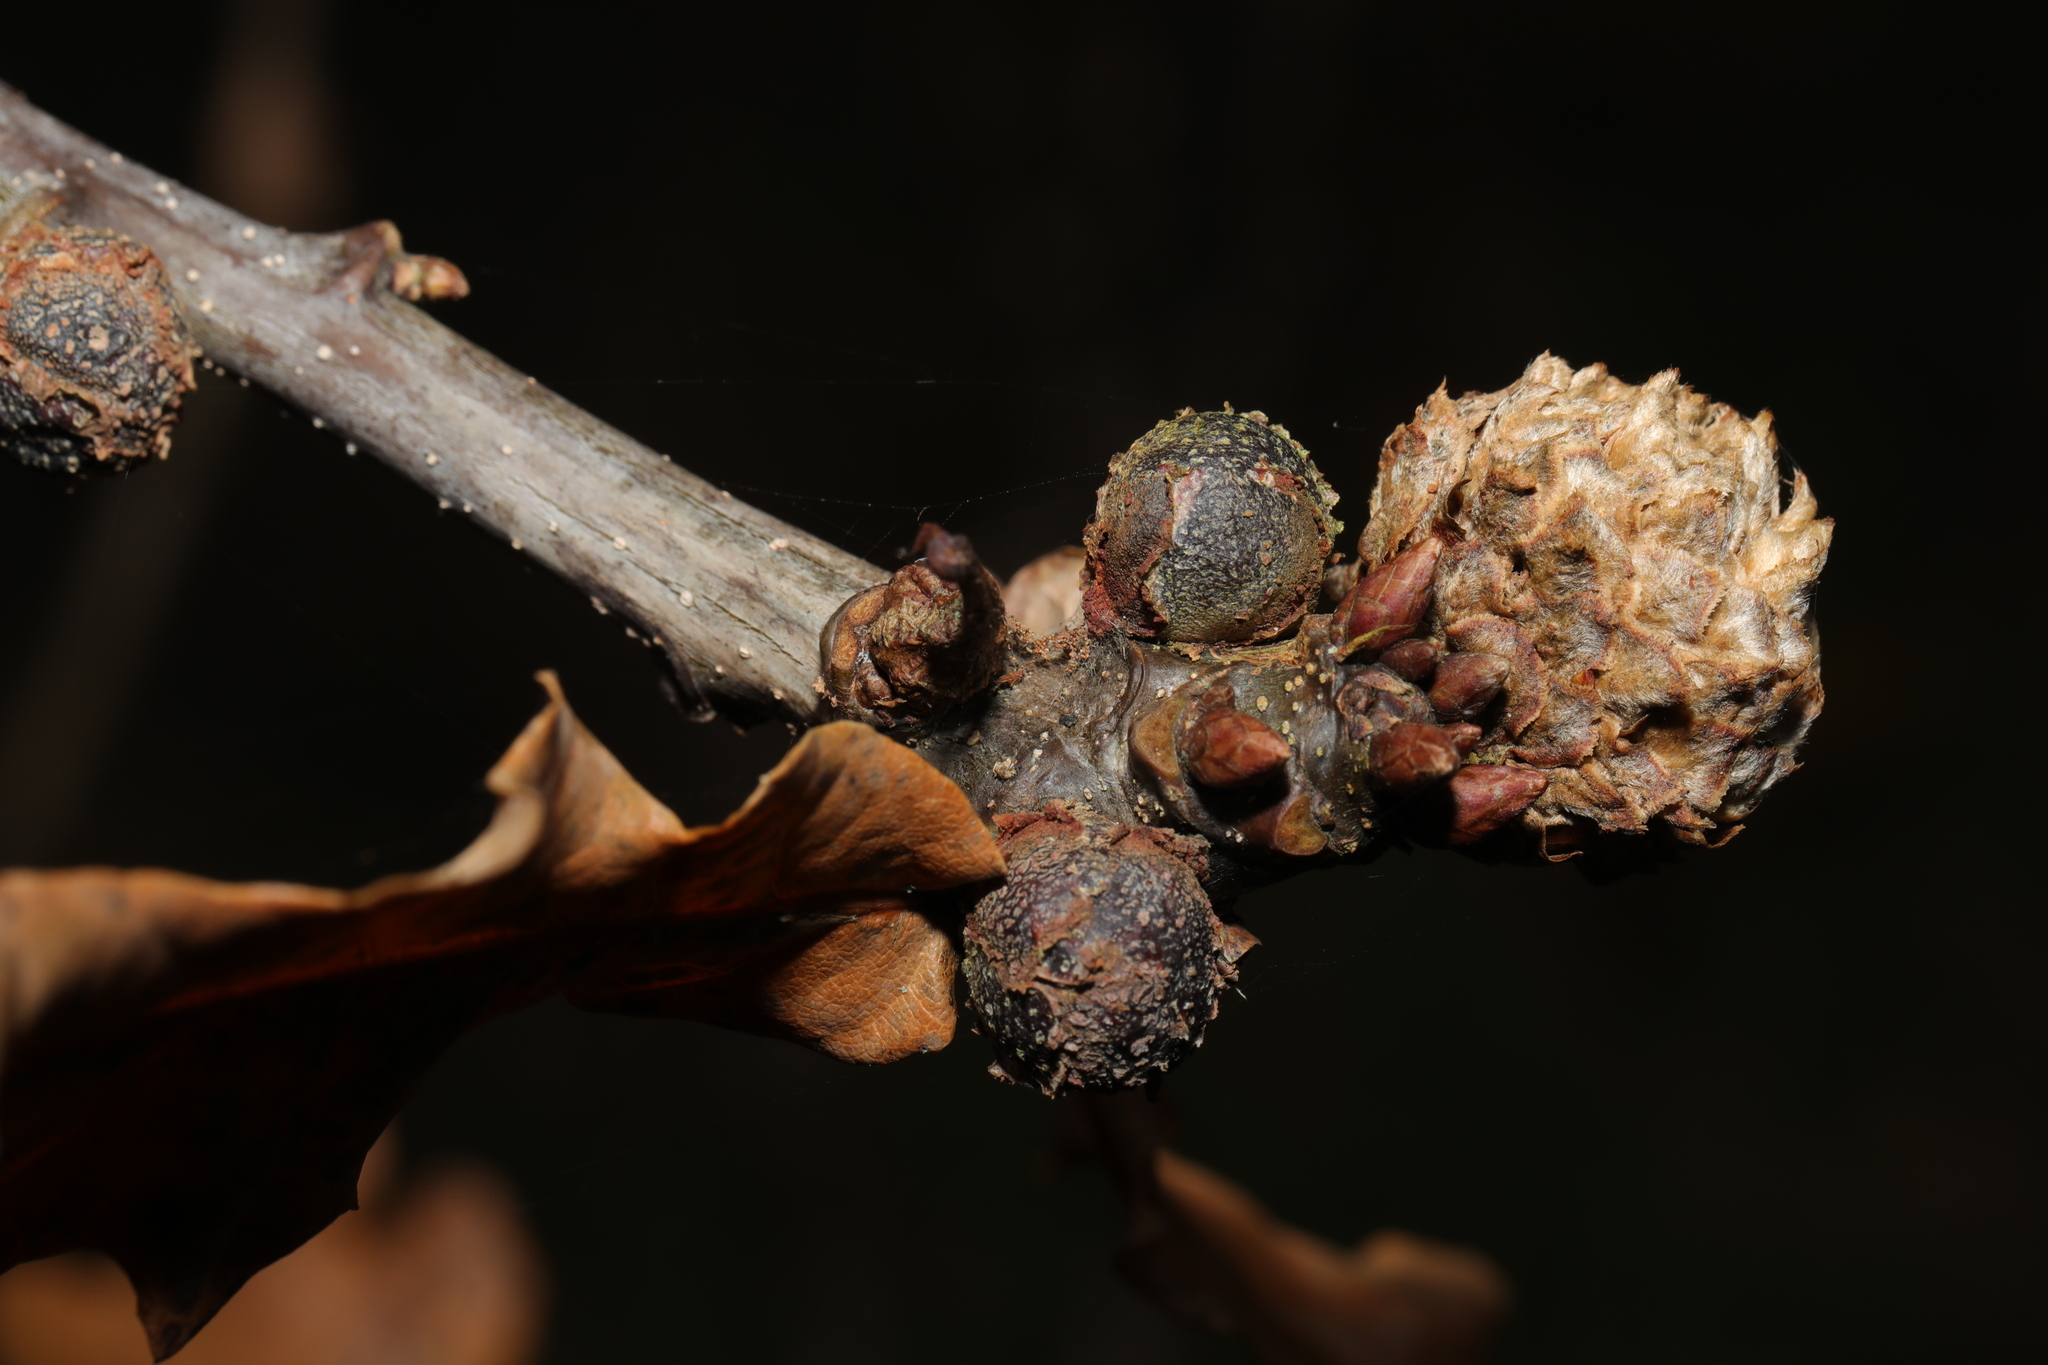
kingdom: Animalia
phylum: Arthropoda
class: Insecta
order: Hymenoptera
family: Cynipidae
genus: Andricus
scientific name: Andricus foecundatrix
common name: Artichoke gall
